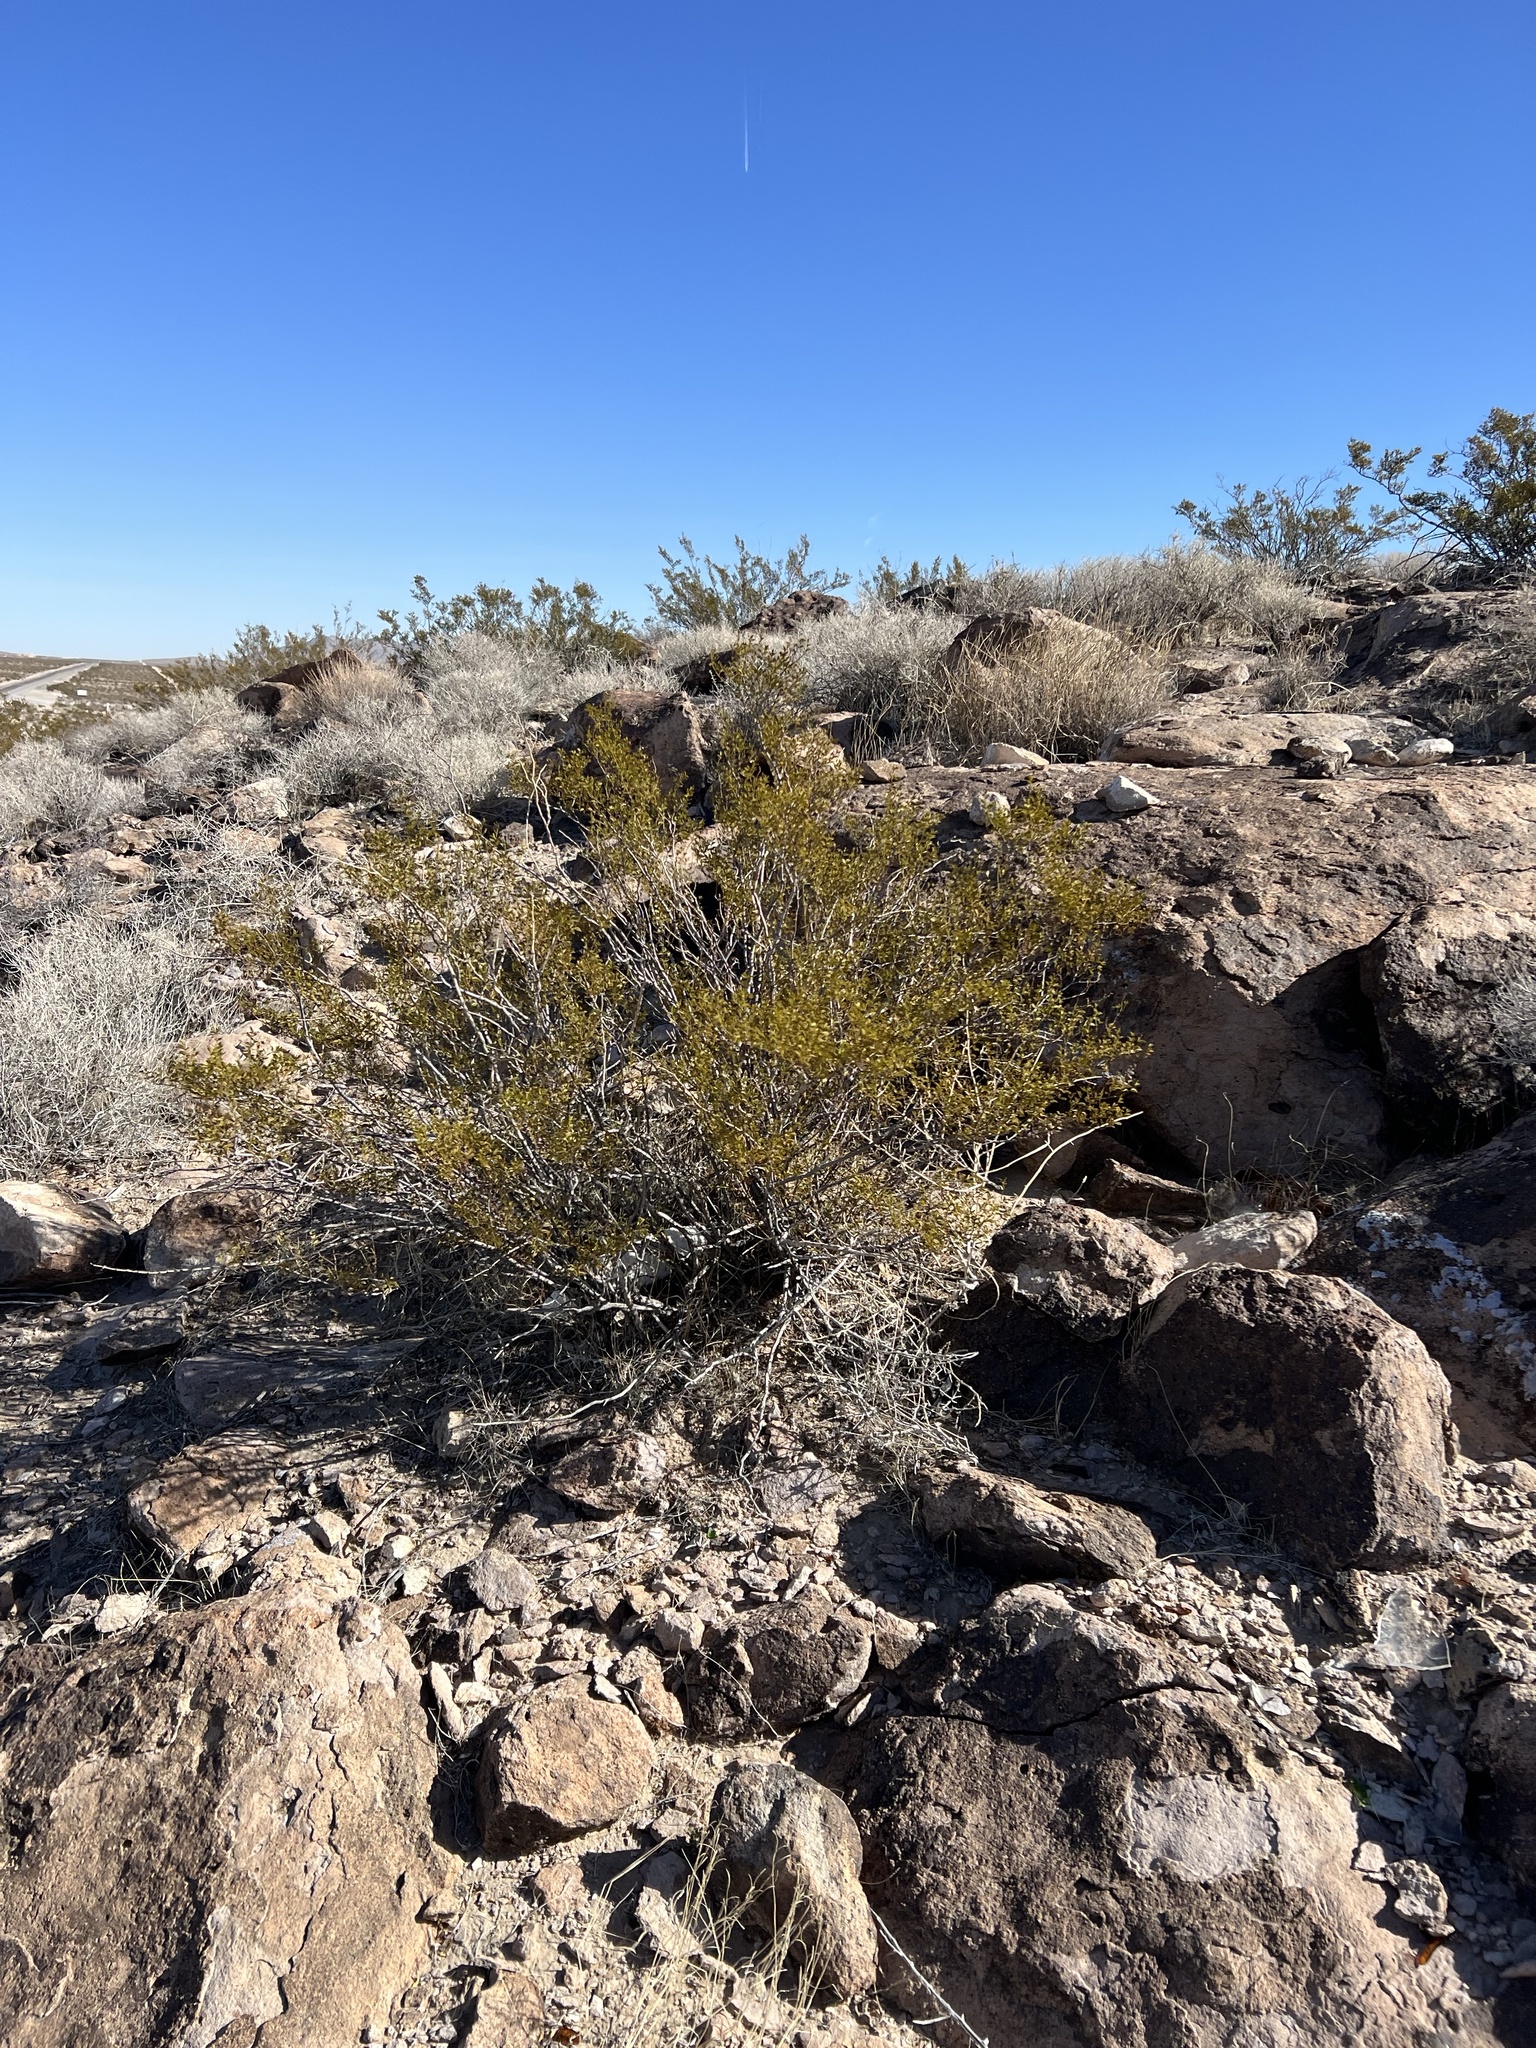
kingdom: Plantae
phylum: Tracheophyta
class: Magnoliopsida
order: Zygophyllales
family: Zygophyllaceae
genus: Larrea
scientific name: Larrea tridentata
